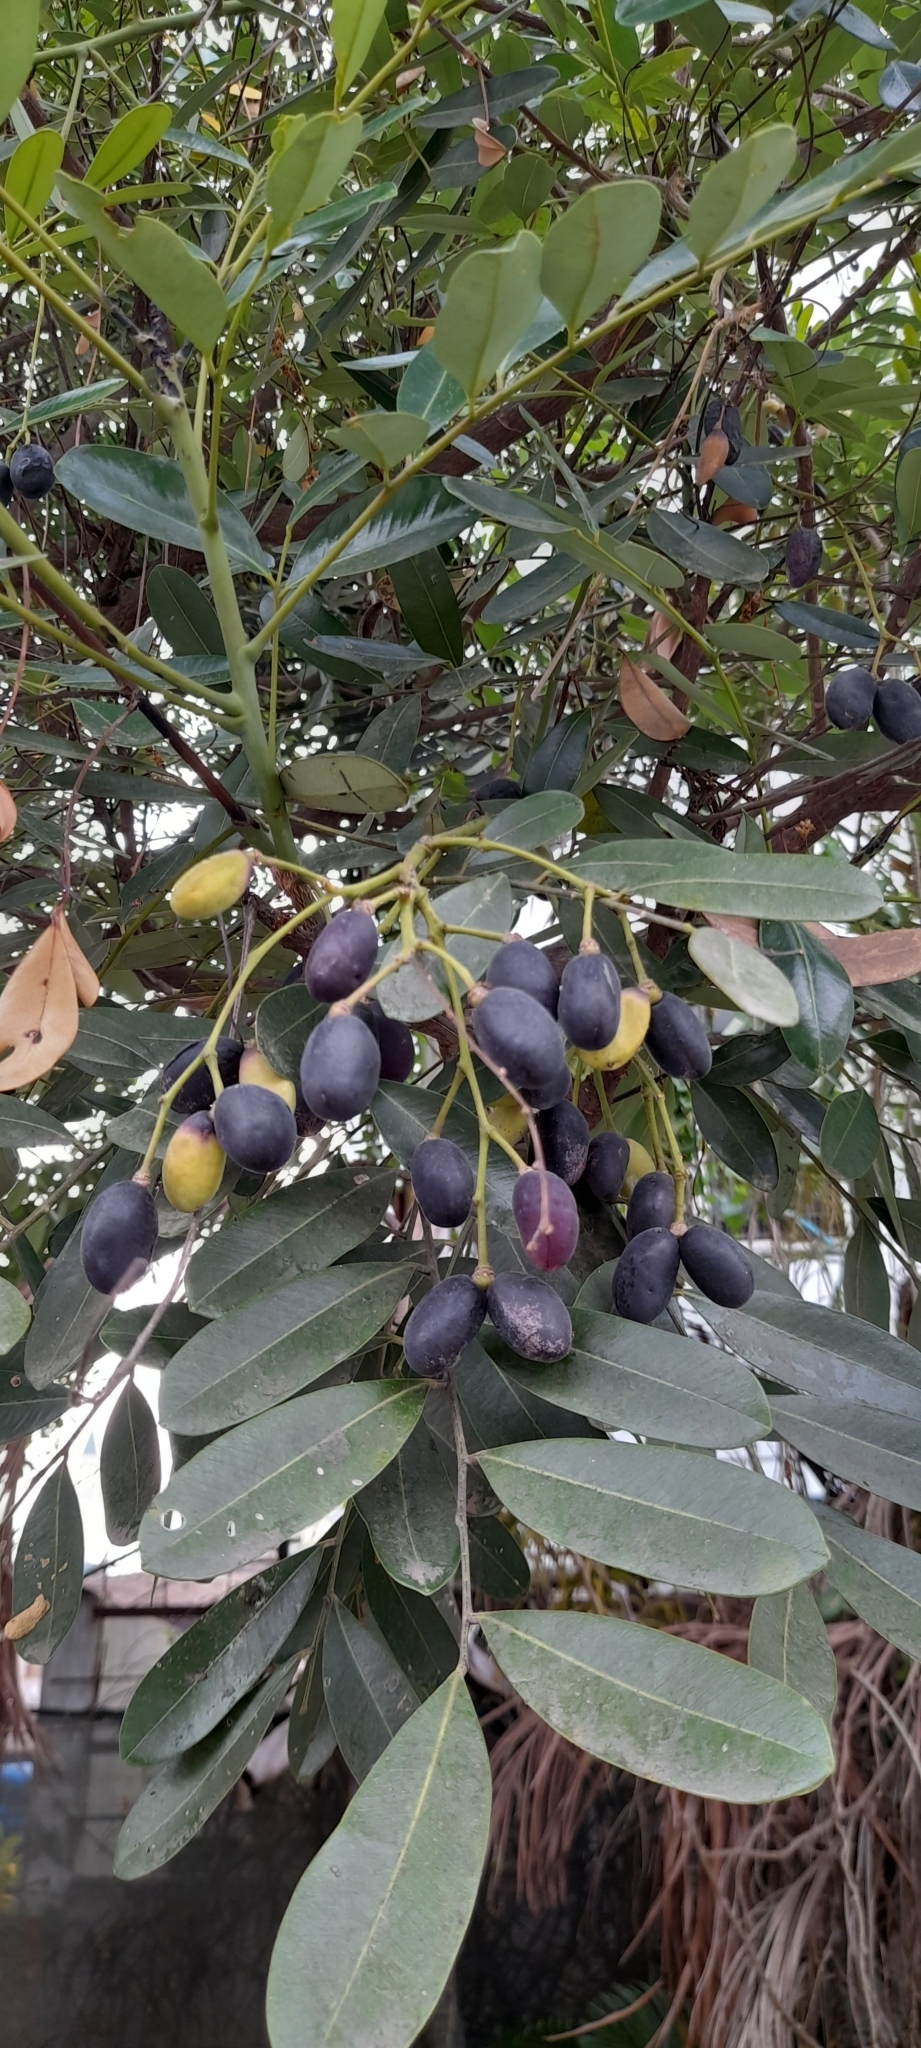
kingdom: Plantae
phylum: Tracheophyta
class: Magnoliopsida
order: Sapindales
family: Simaroubaceae
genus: Simarouba
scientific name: Simarouba amara
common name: Bitterwood
